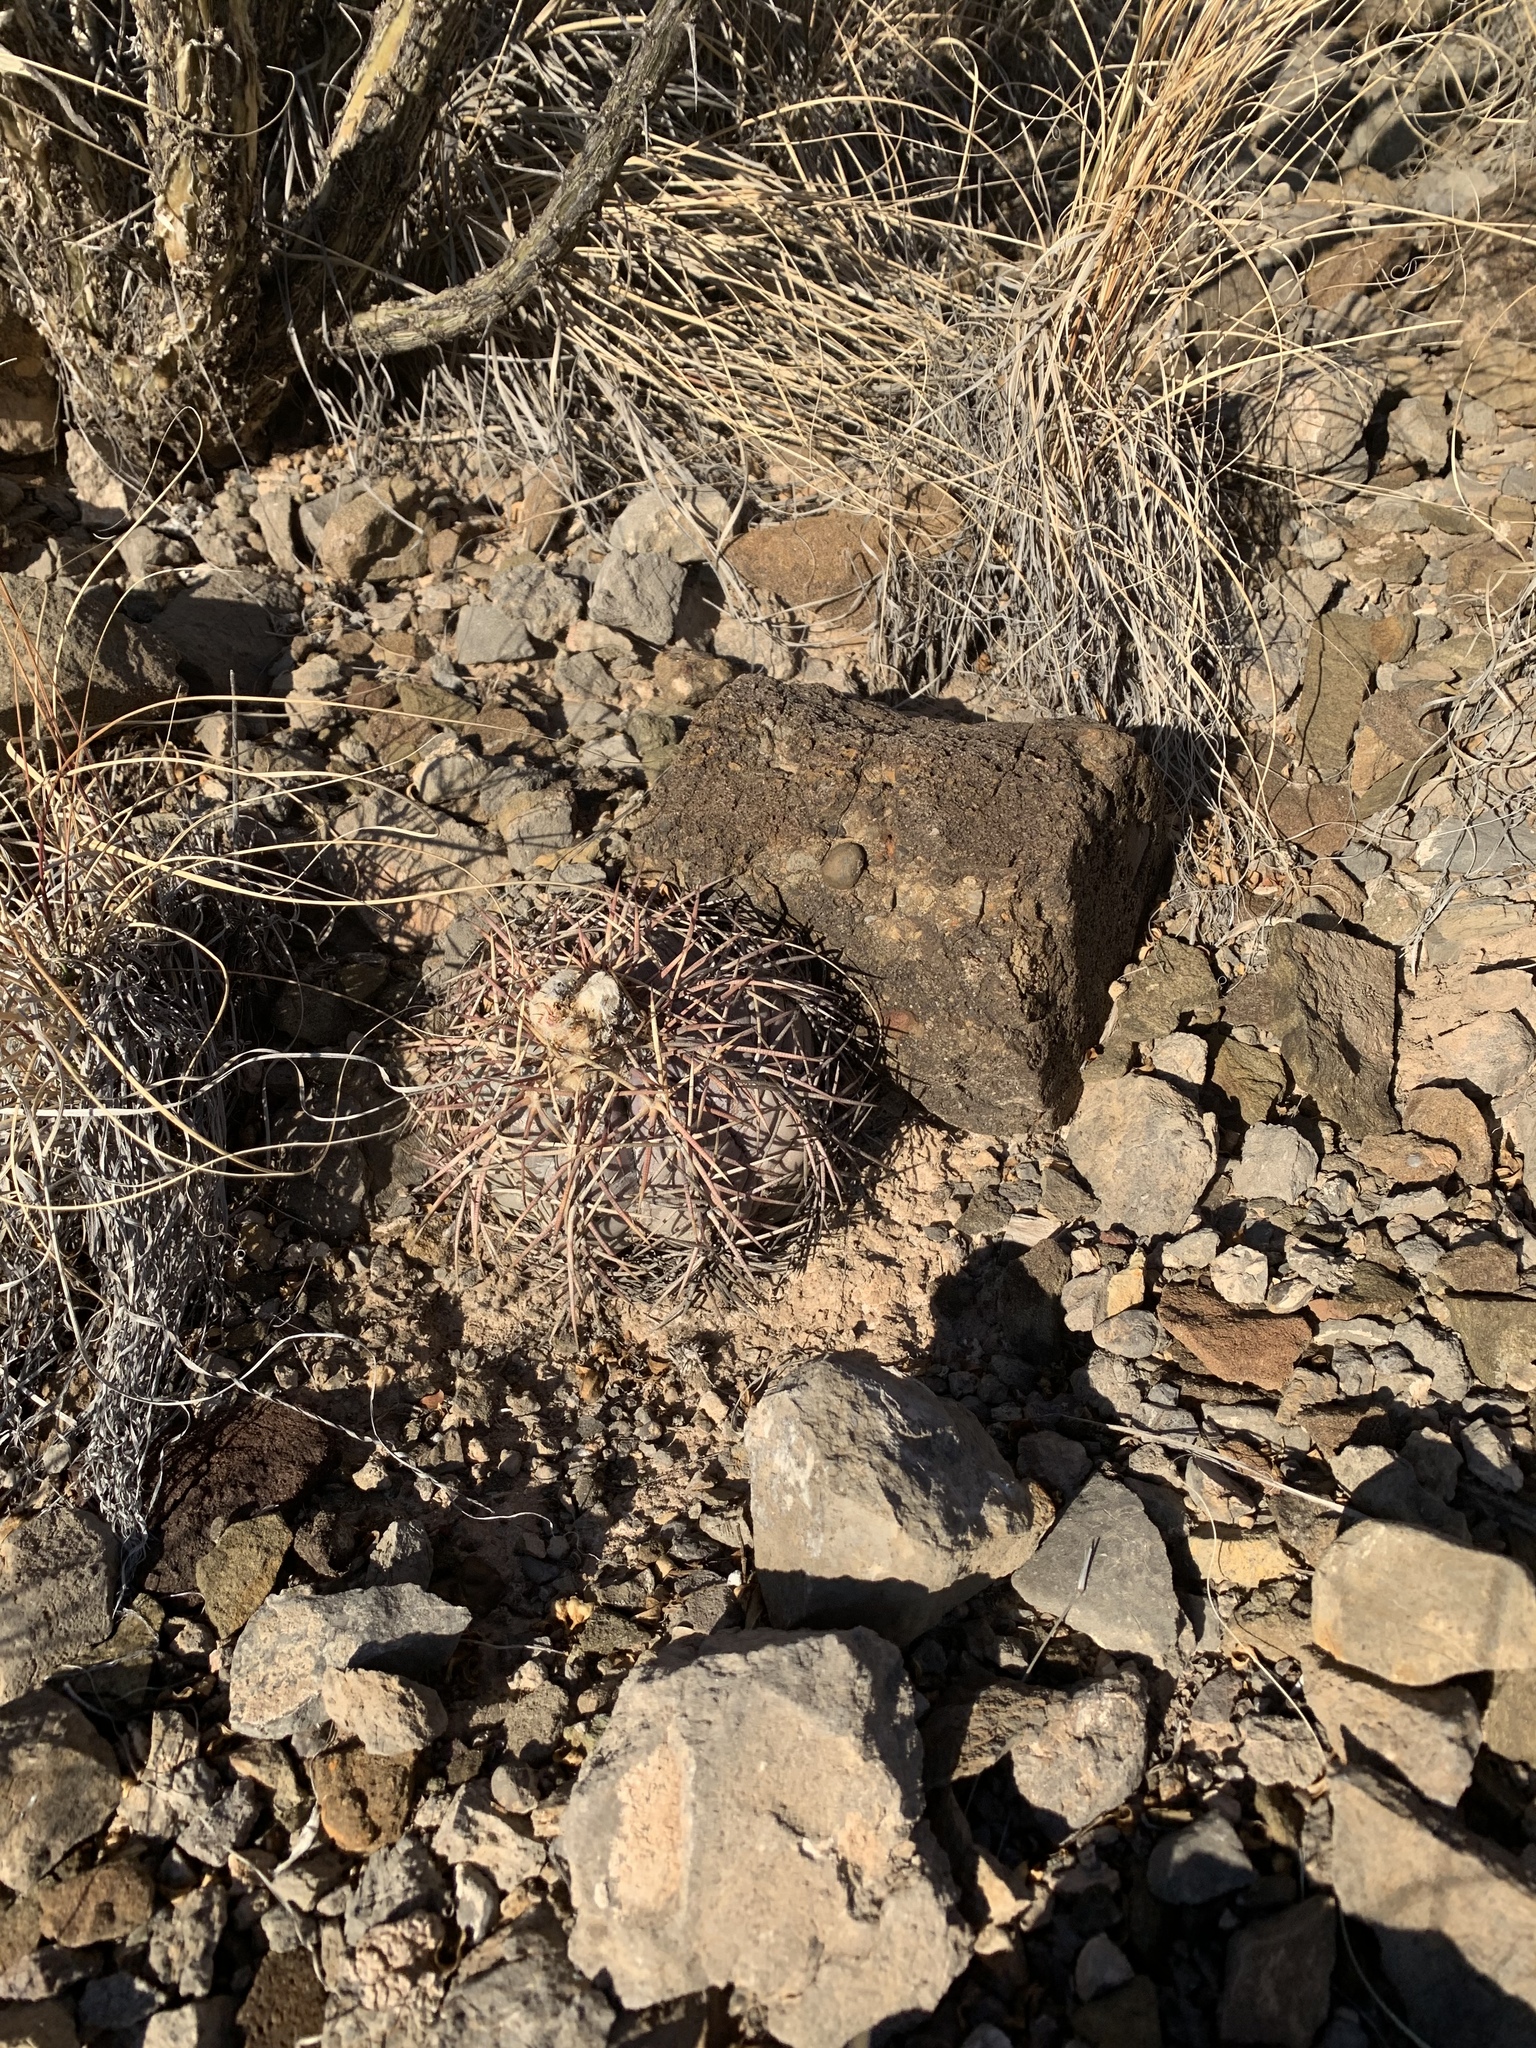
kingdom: Plantae
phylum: Tracheophyta
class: Magnoliopsida
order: Caryophyllales
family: Cactaceae
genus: Echinocactus
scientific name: Echinocactus horizonthalonius
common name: Devilshead
